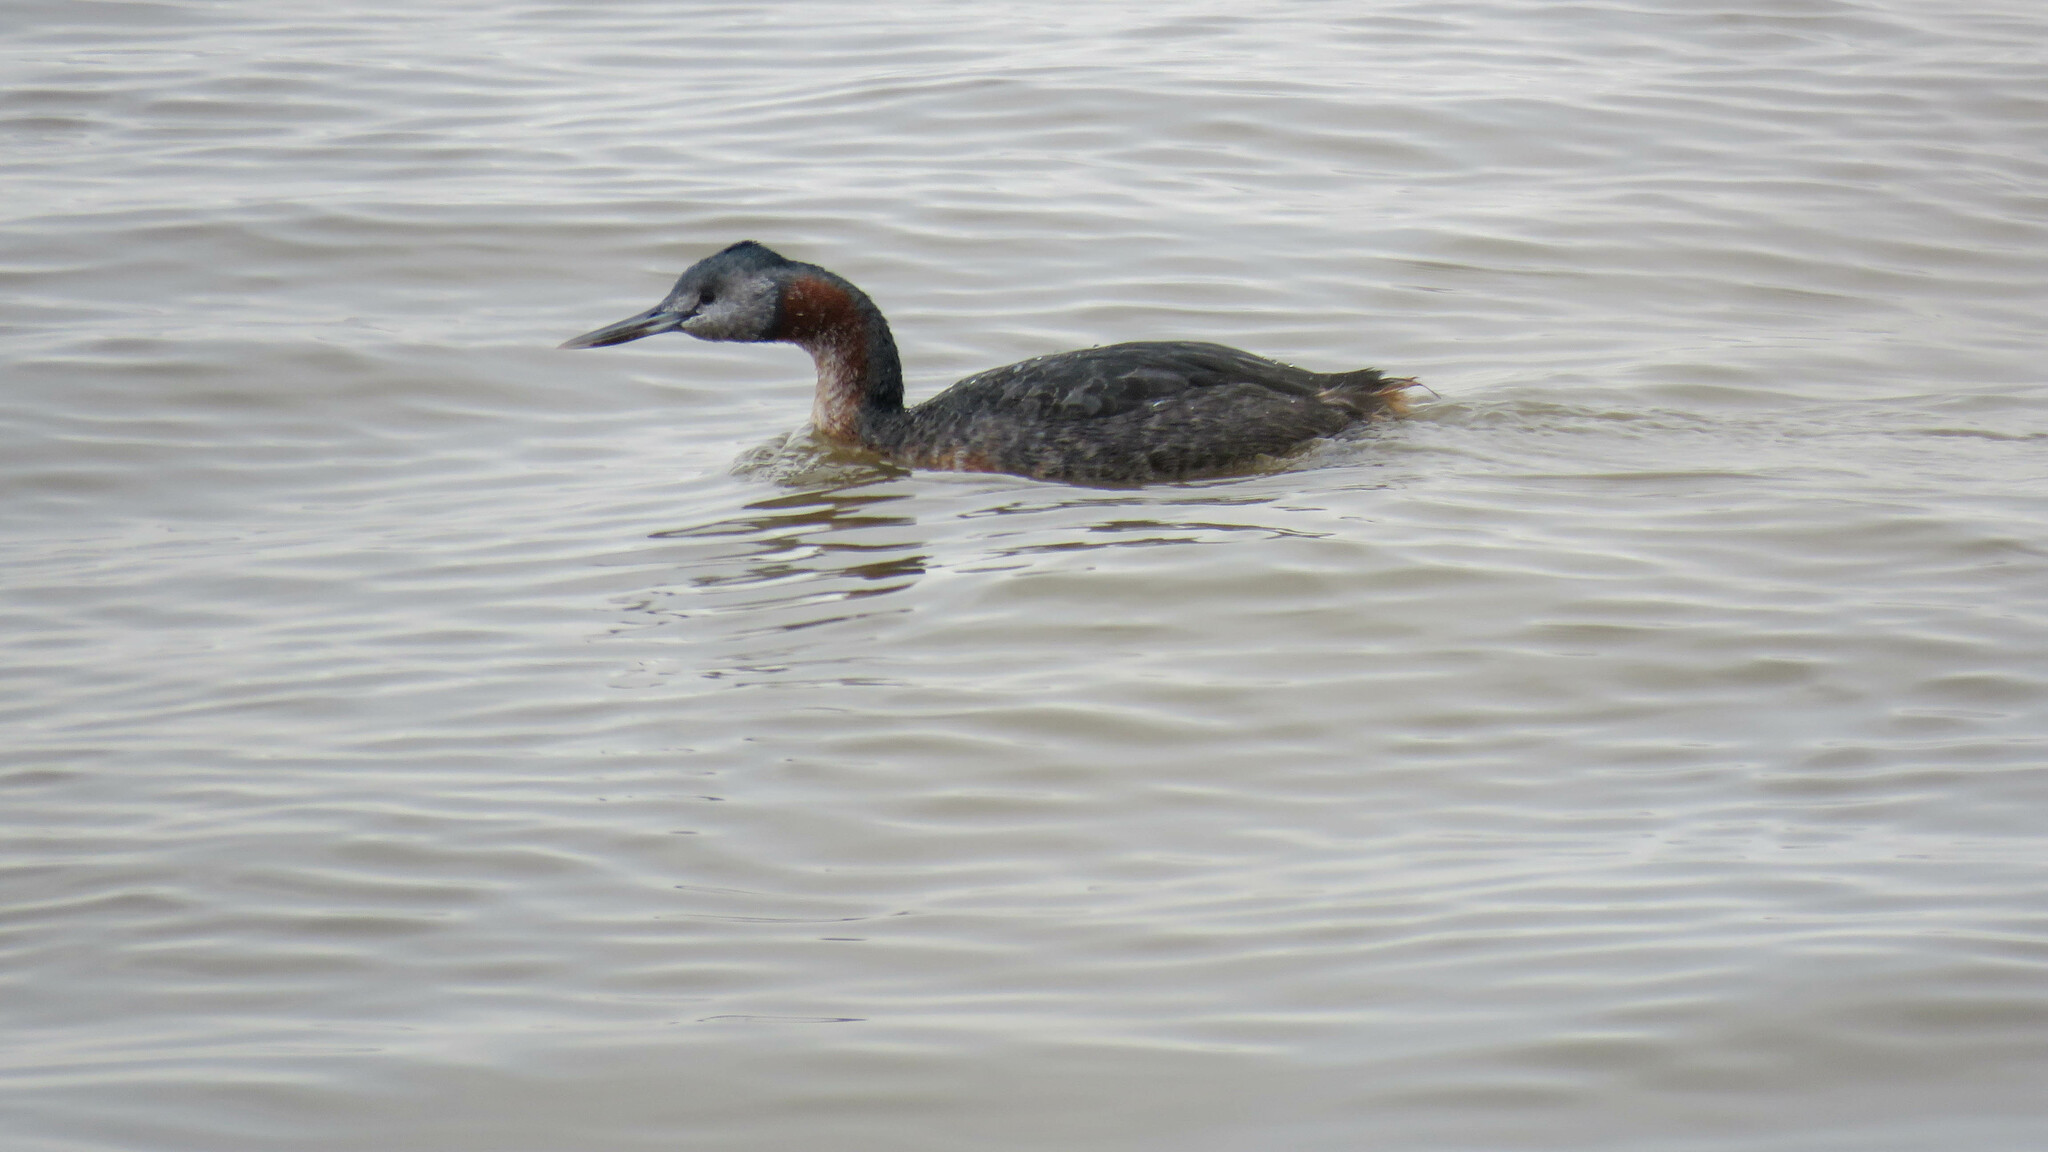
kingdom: Animalia
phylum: Chordata
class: Aves
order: Podicipediformes
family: Podicipedidae
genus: Podiceps
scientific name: Podiceps major
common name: Great grebe
